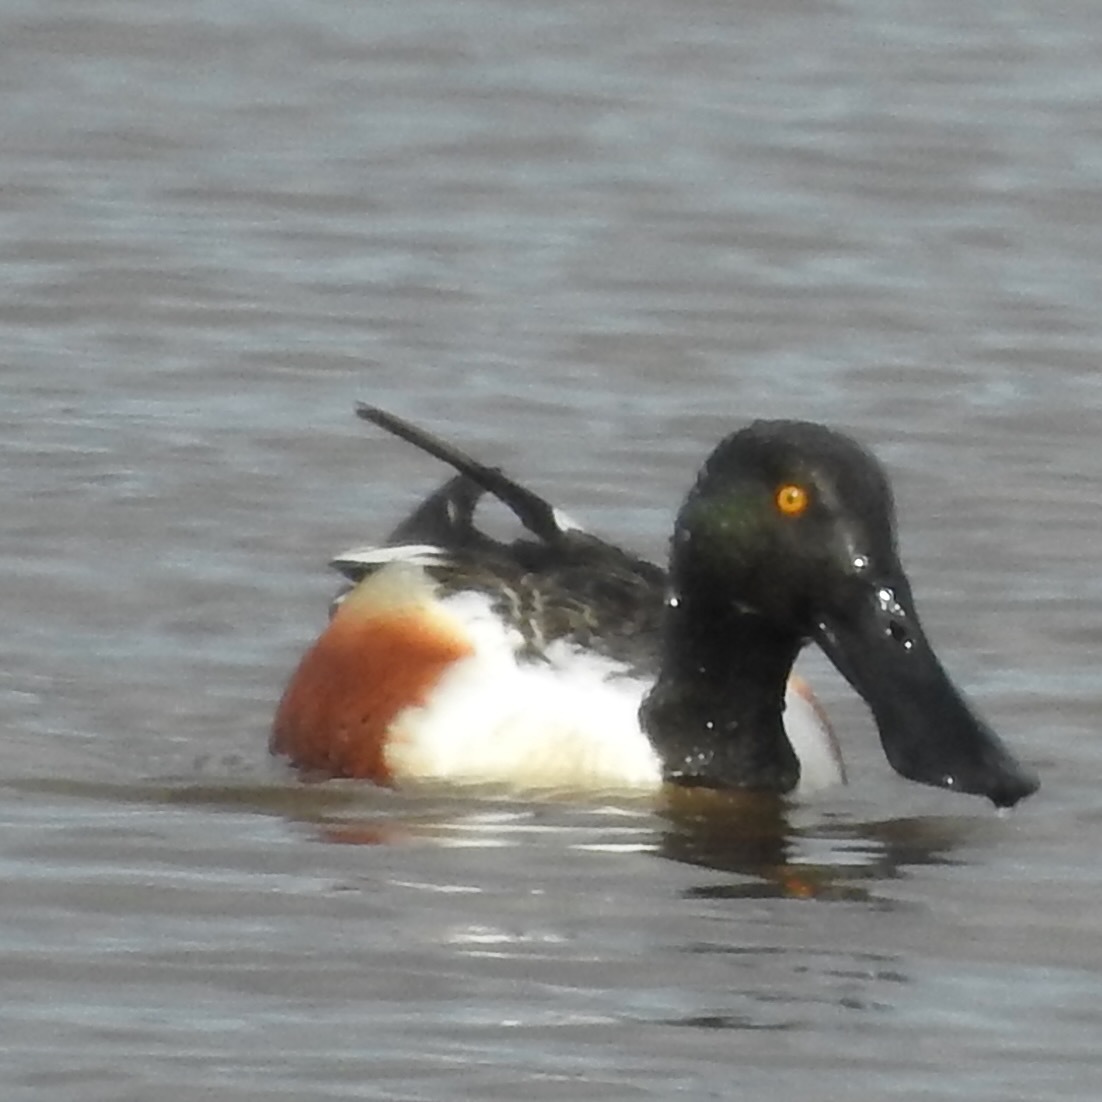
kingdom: Animalia
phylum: Chordata
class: Aves
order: Anseriformes
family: Anatidae
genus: Spatula
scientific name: Spatula clypeata
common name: Northern shoveler
